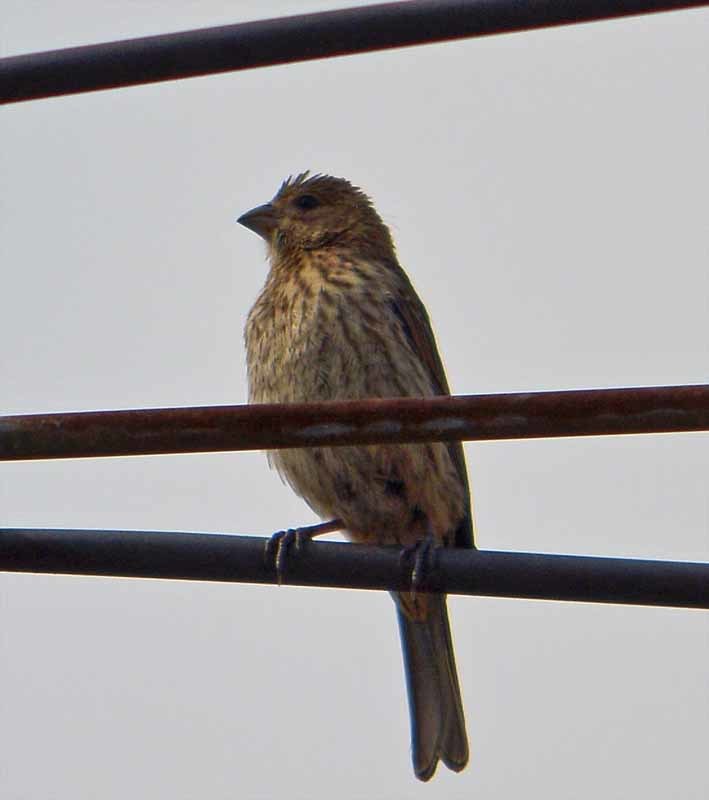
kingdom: Animalia
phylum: Chordata
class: Aves
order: Passeriformes
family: Fringillidae
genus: Haemorhous
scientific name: Haemorhous mexicanus
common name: House finch
